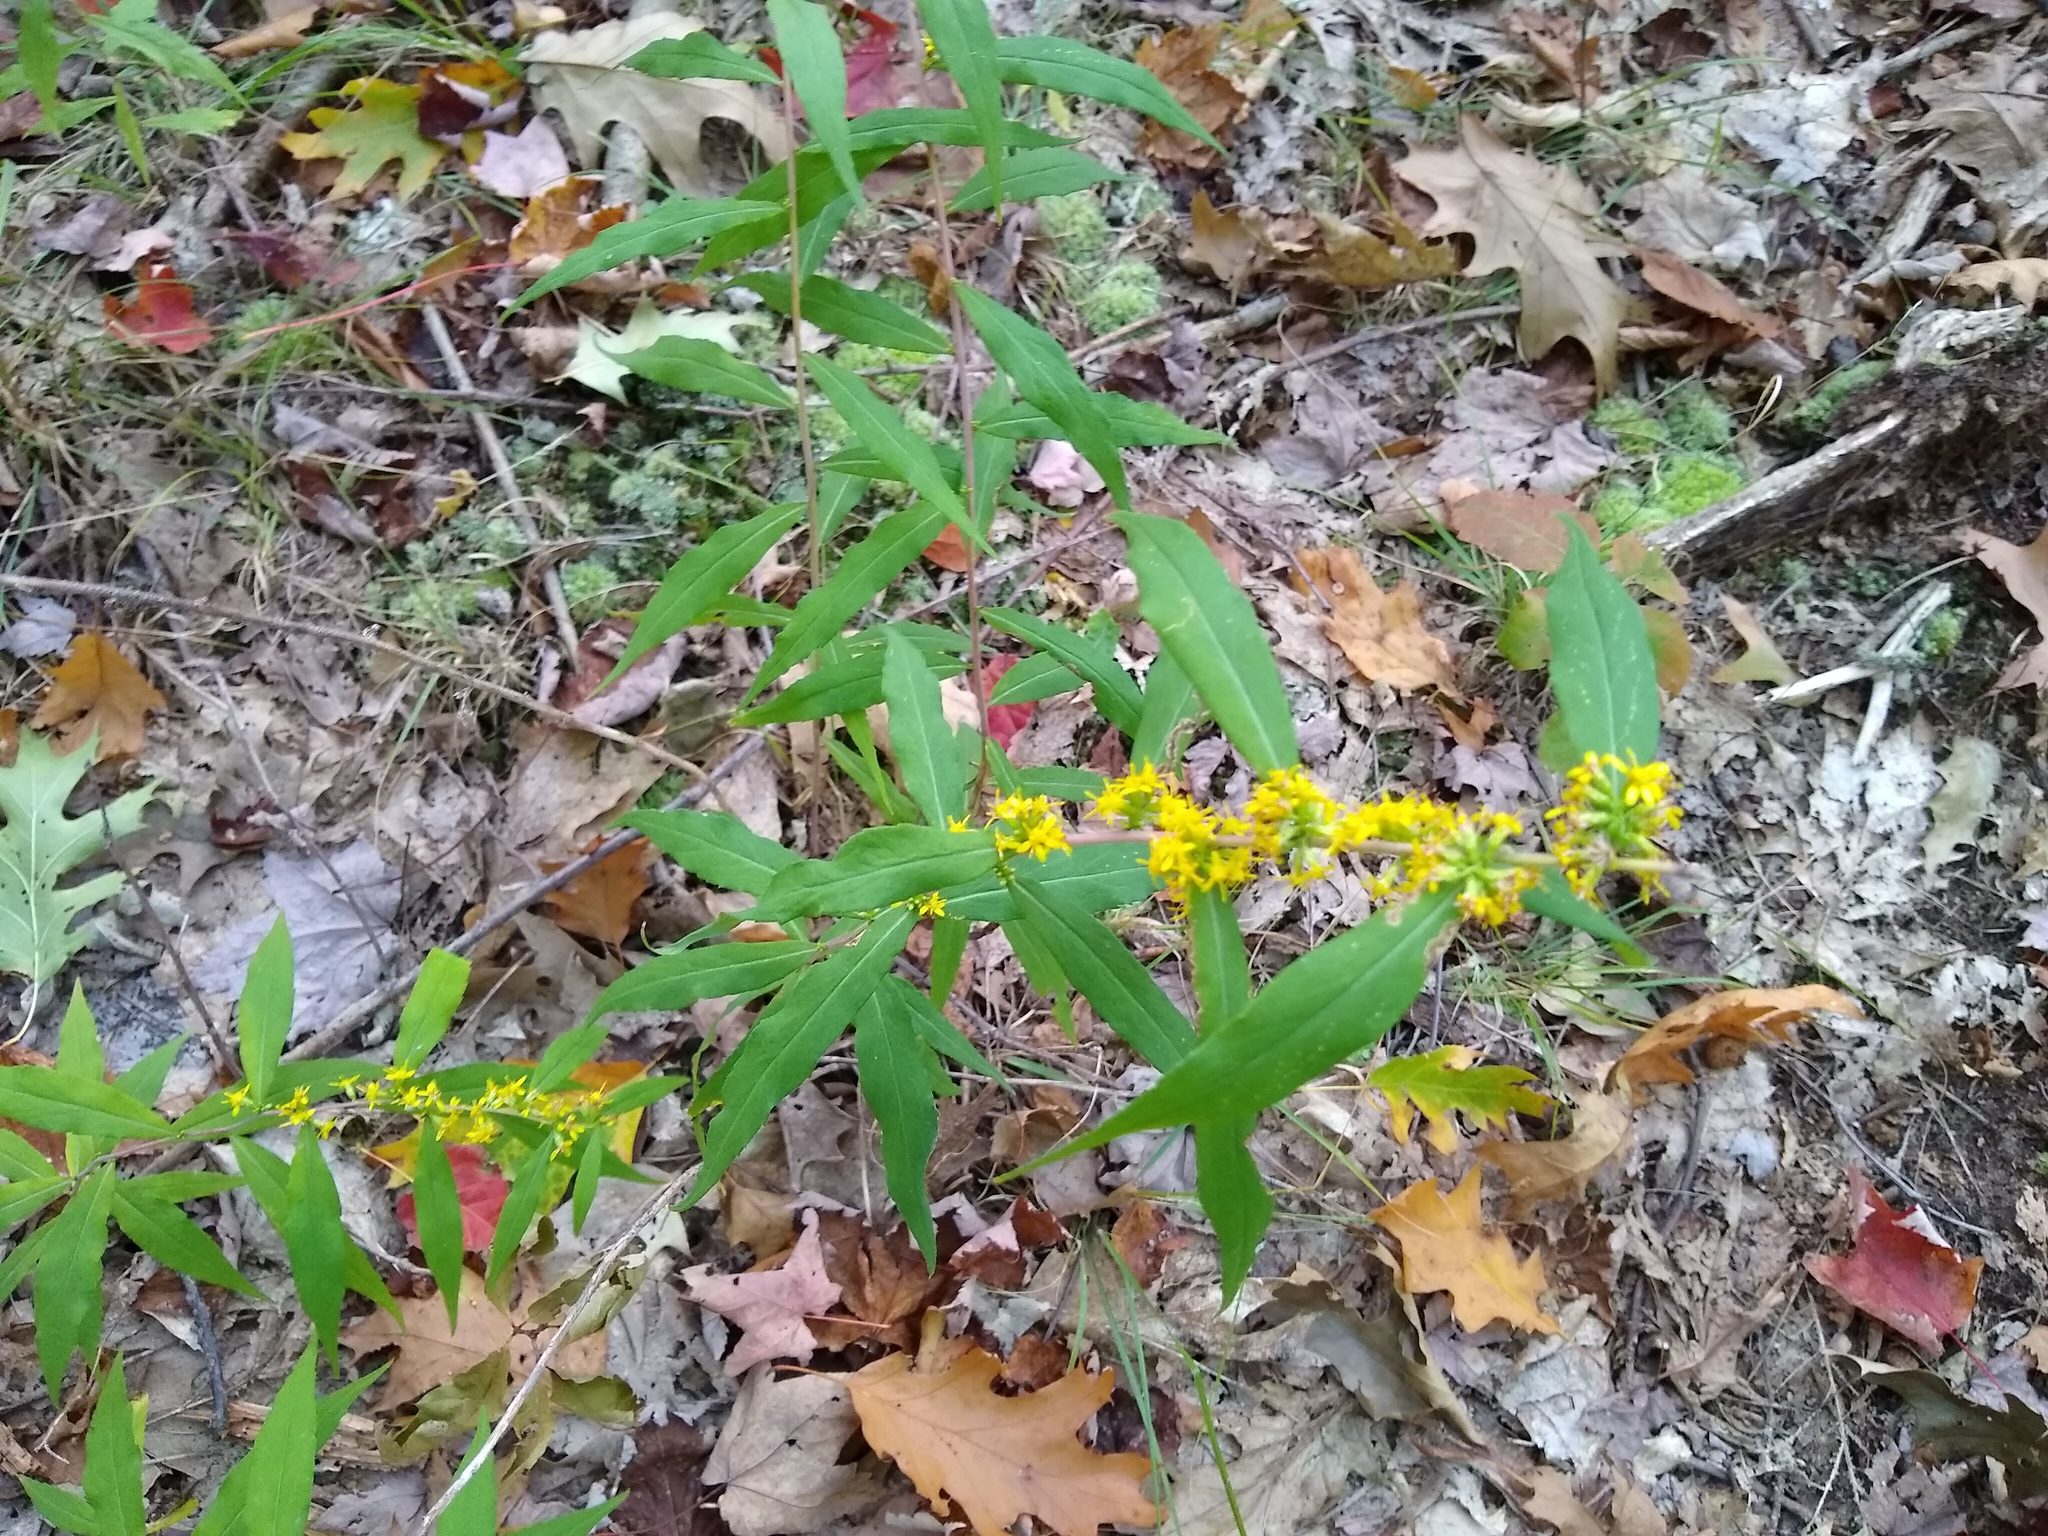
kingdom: Plantae
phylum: Tracheophyta
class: Magnoliopsida
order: Asterales
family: Asteraceae
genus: Solidago
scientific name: Solidago caesia
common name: Woodland goldenrod
